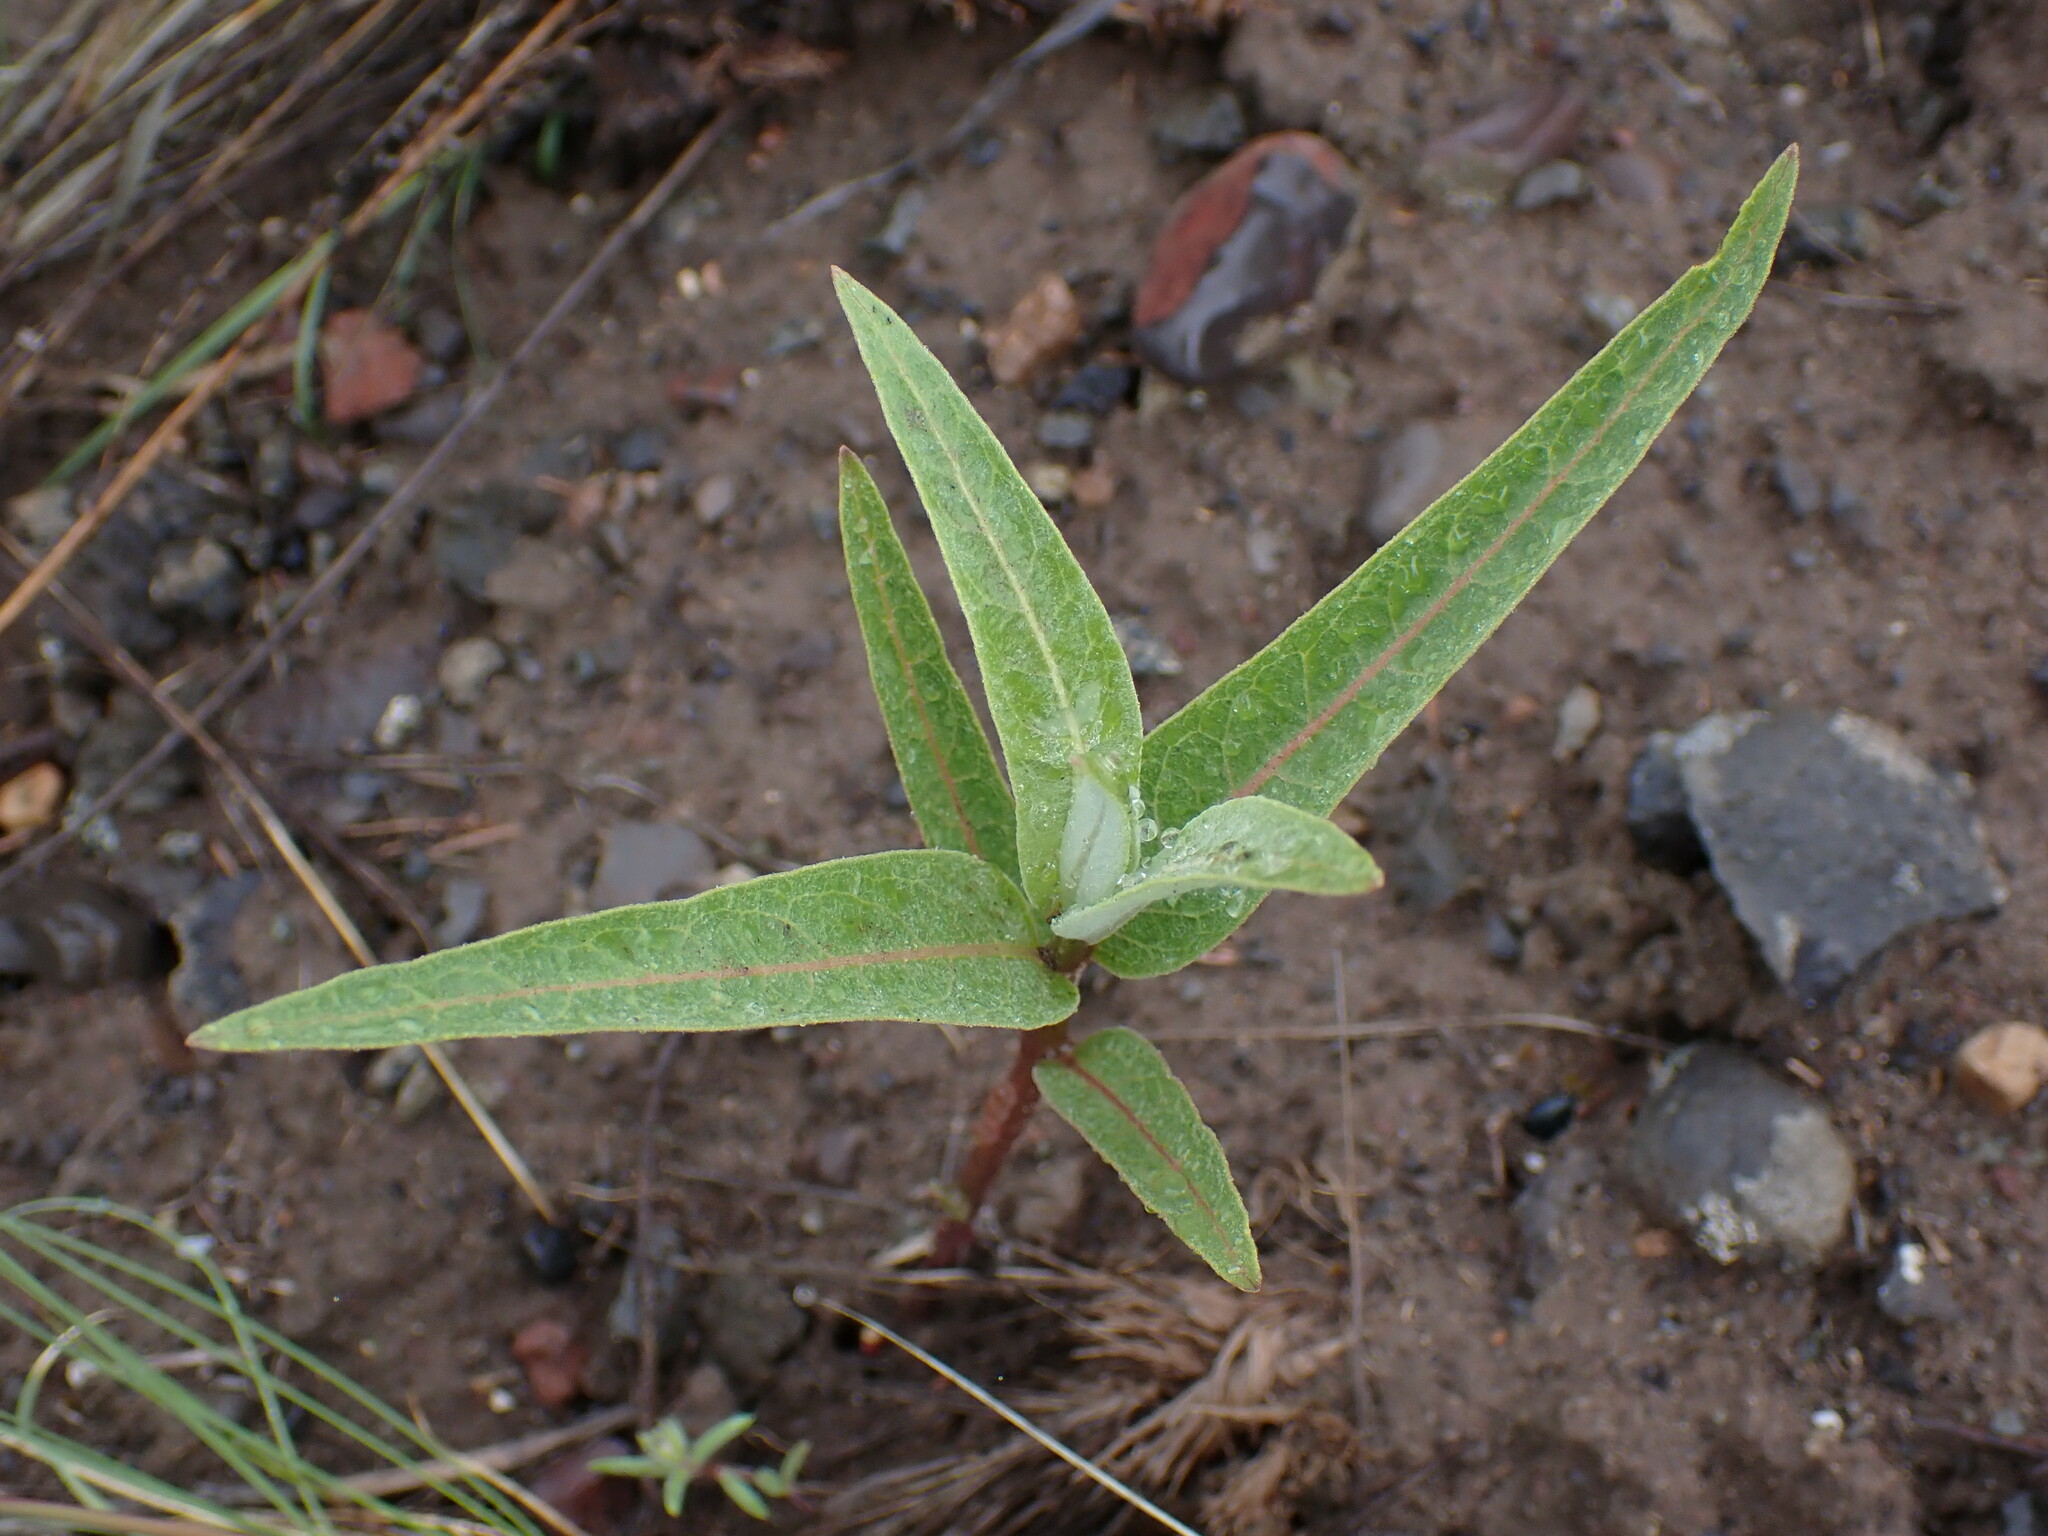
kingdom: Plantae
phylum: Tracheophyta
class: Magnoliopsida
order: Gentianales
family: Apocynaceae
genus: Asclepias
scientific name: Asclepias speciosa
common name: Showy milkweed
